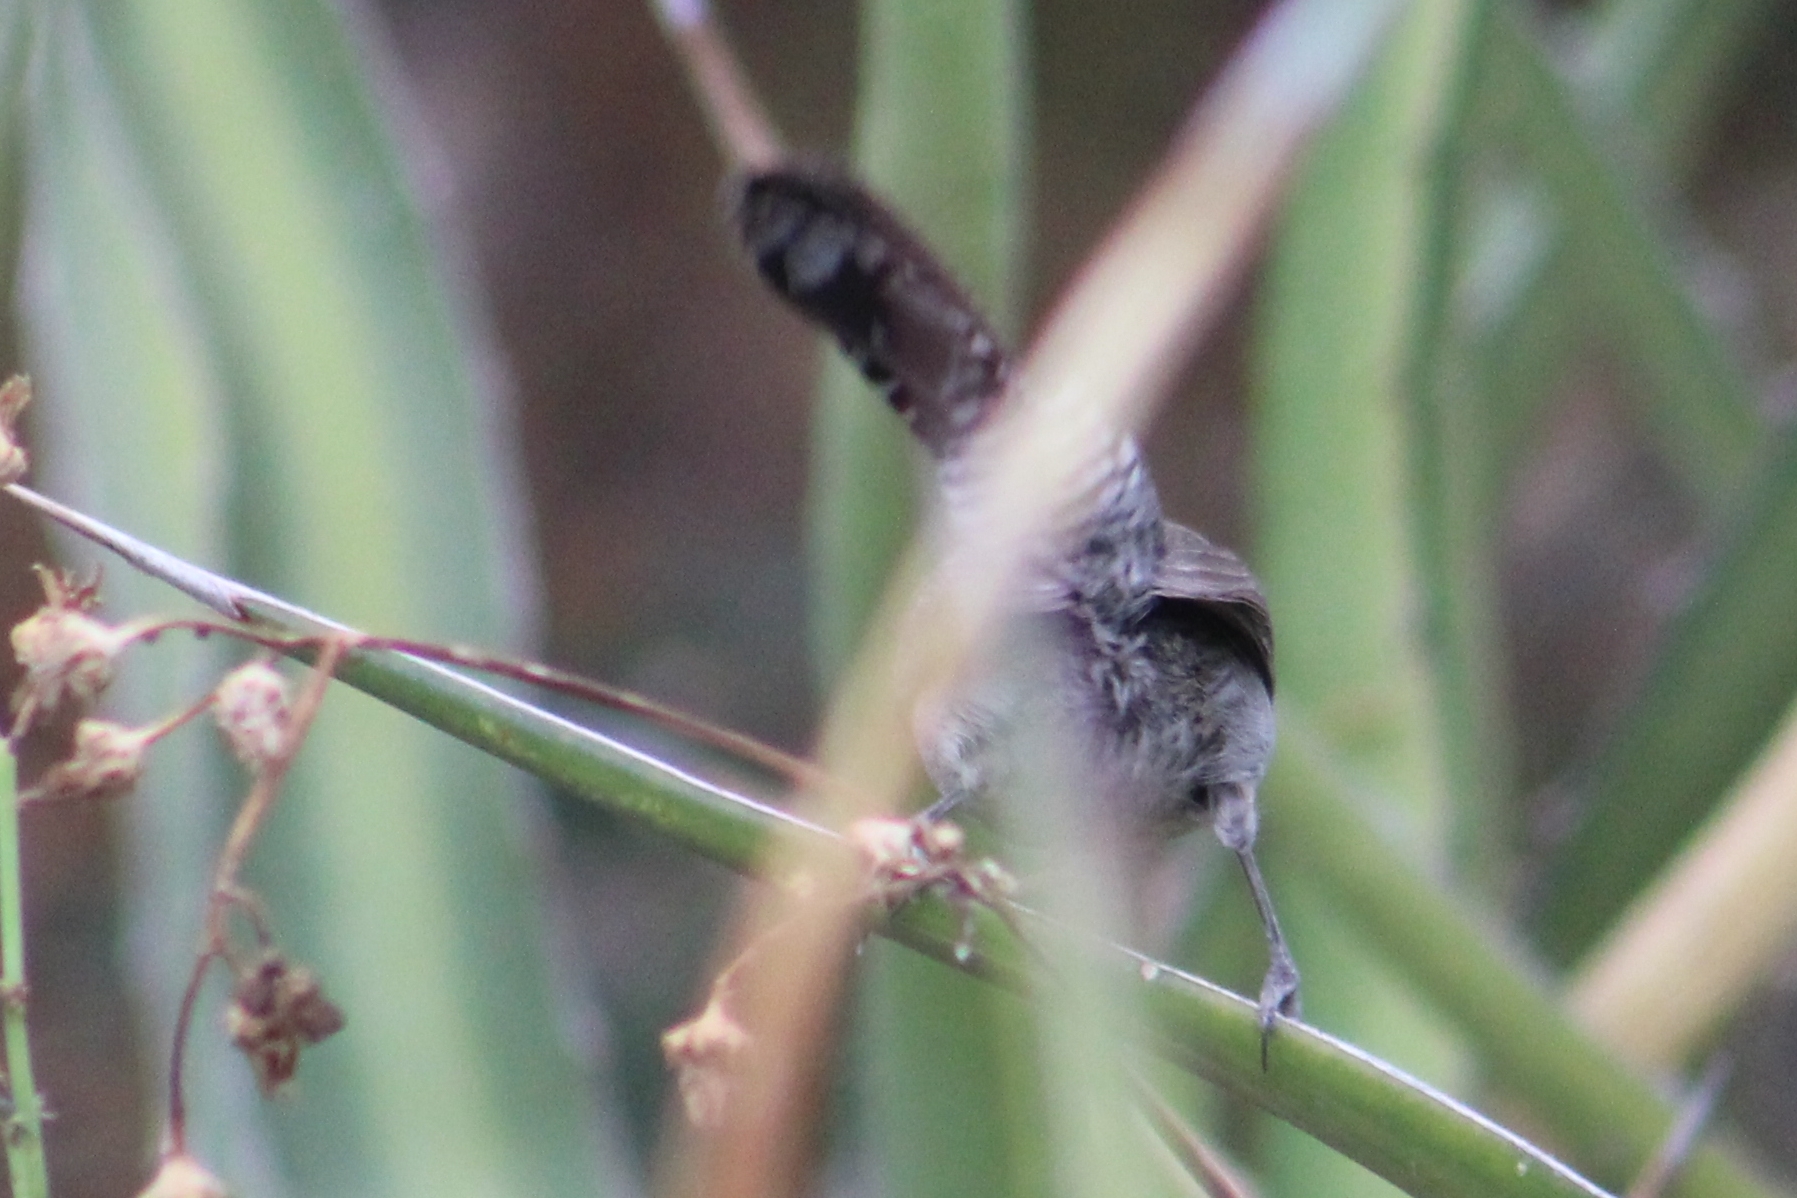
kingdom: Animalia
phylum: Chordata
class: Aves
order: Passeriformes
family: Troglodytidae
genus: Thryomanes
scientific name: Thryomanes bewickii
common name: Bewick's wren
